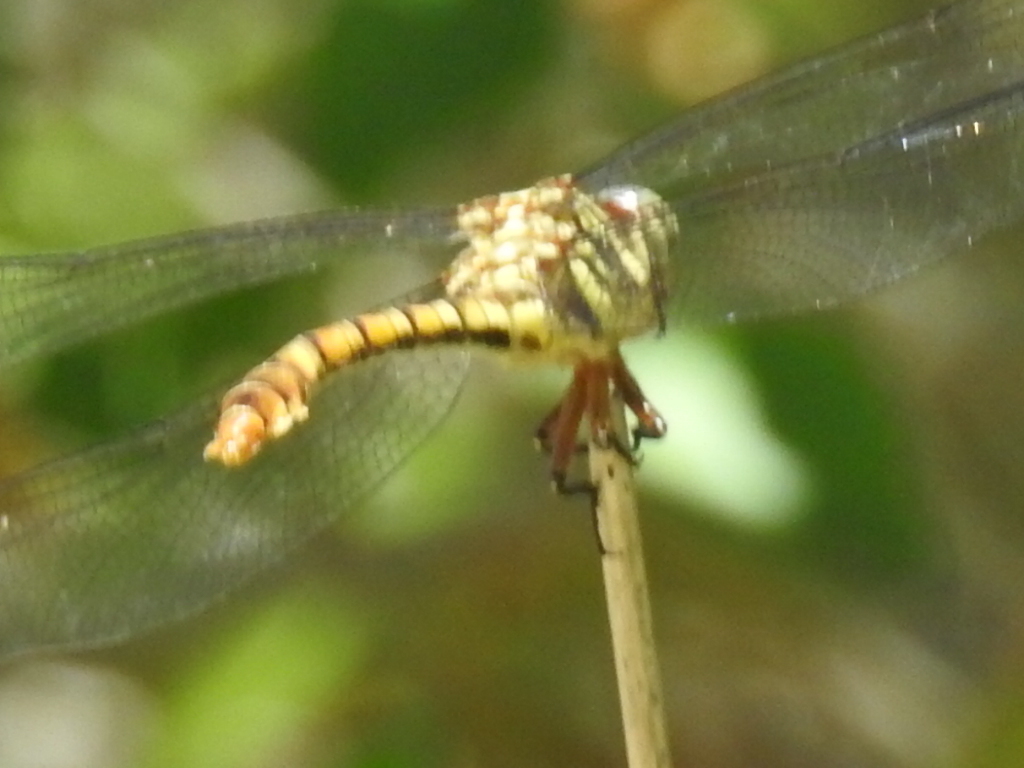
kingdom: Animalia
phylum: Arthropoda
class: Insecta
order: Odonata
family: Gomphidae
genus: Aphylla
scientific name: Aphylla angustifolia
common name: Broad-striped forceptail
